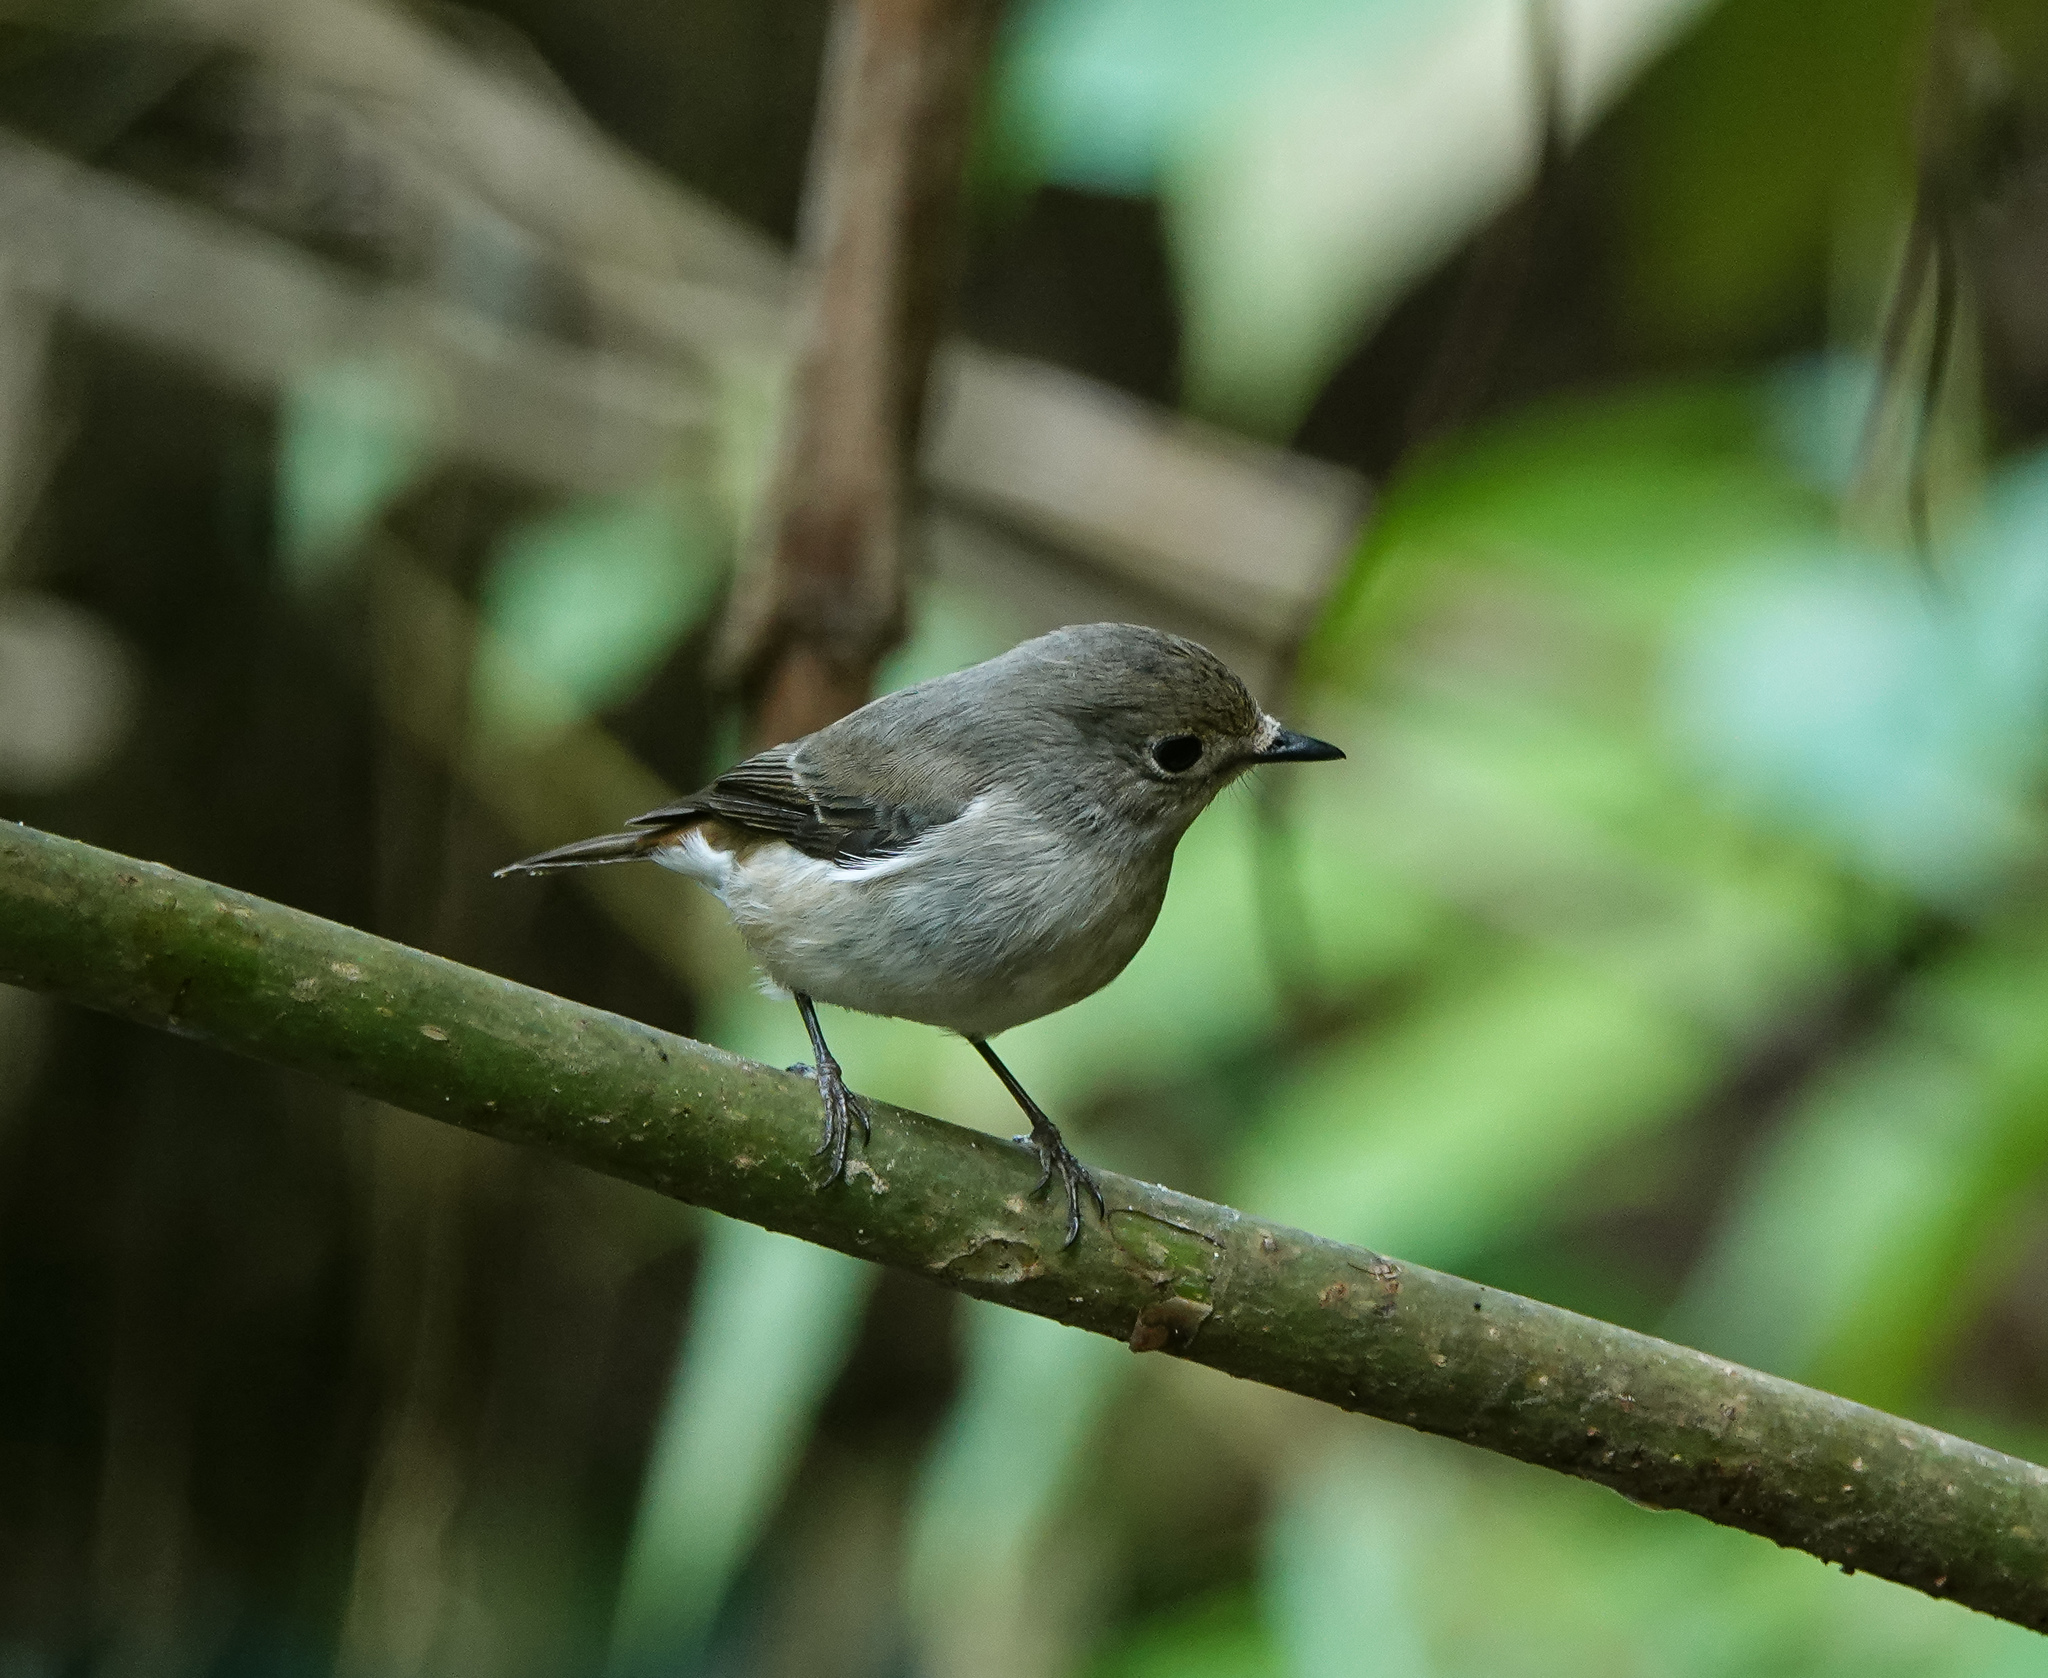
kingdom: Animalia
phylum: Chordata
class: Aves
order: Passeriformes
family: Muscicapidae
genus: Ficedula
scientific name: Ficedula westermanni
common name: Little pied flycatcher
